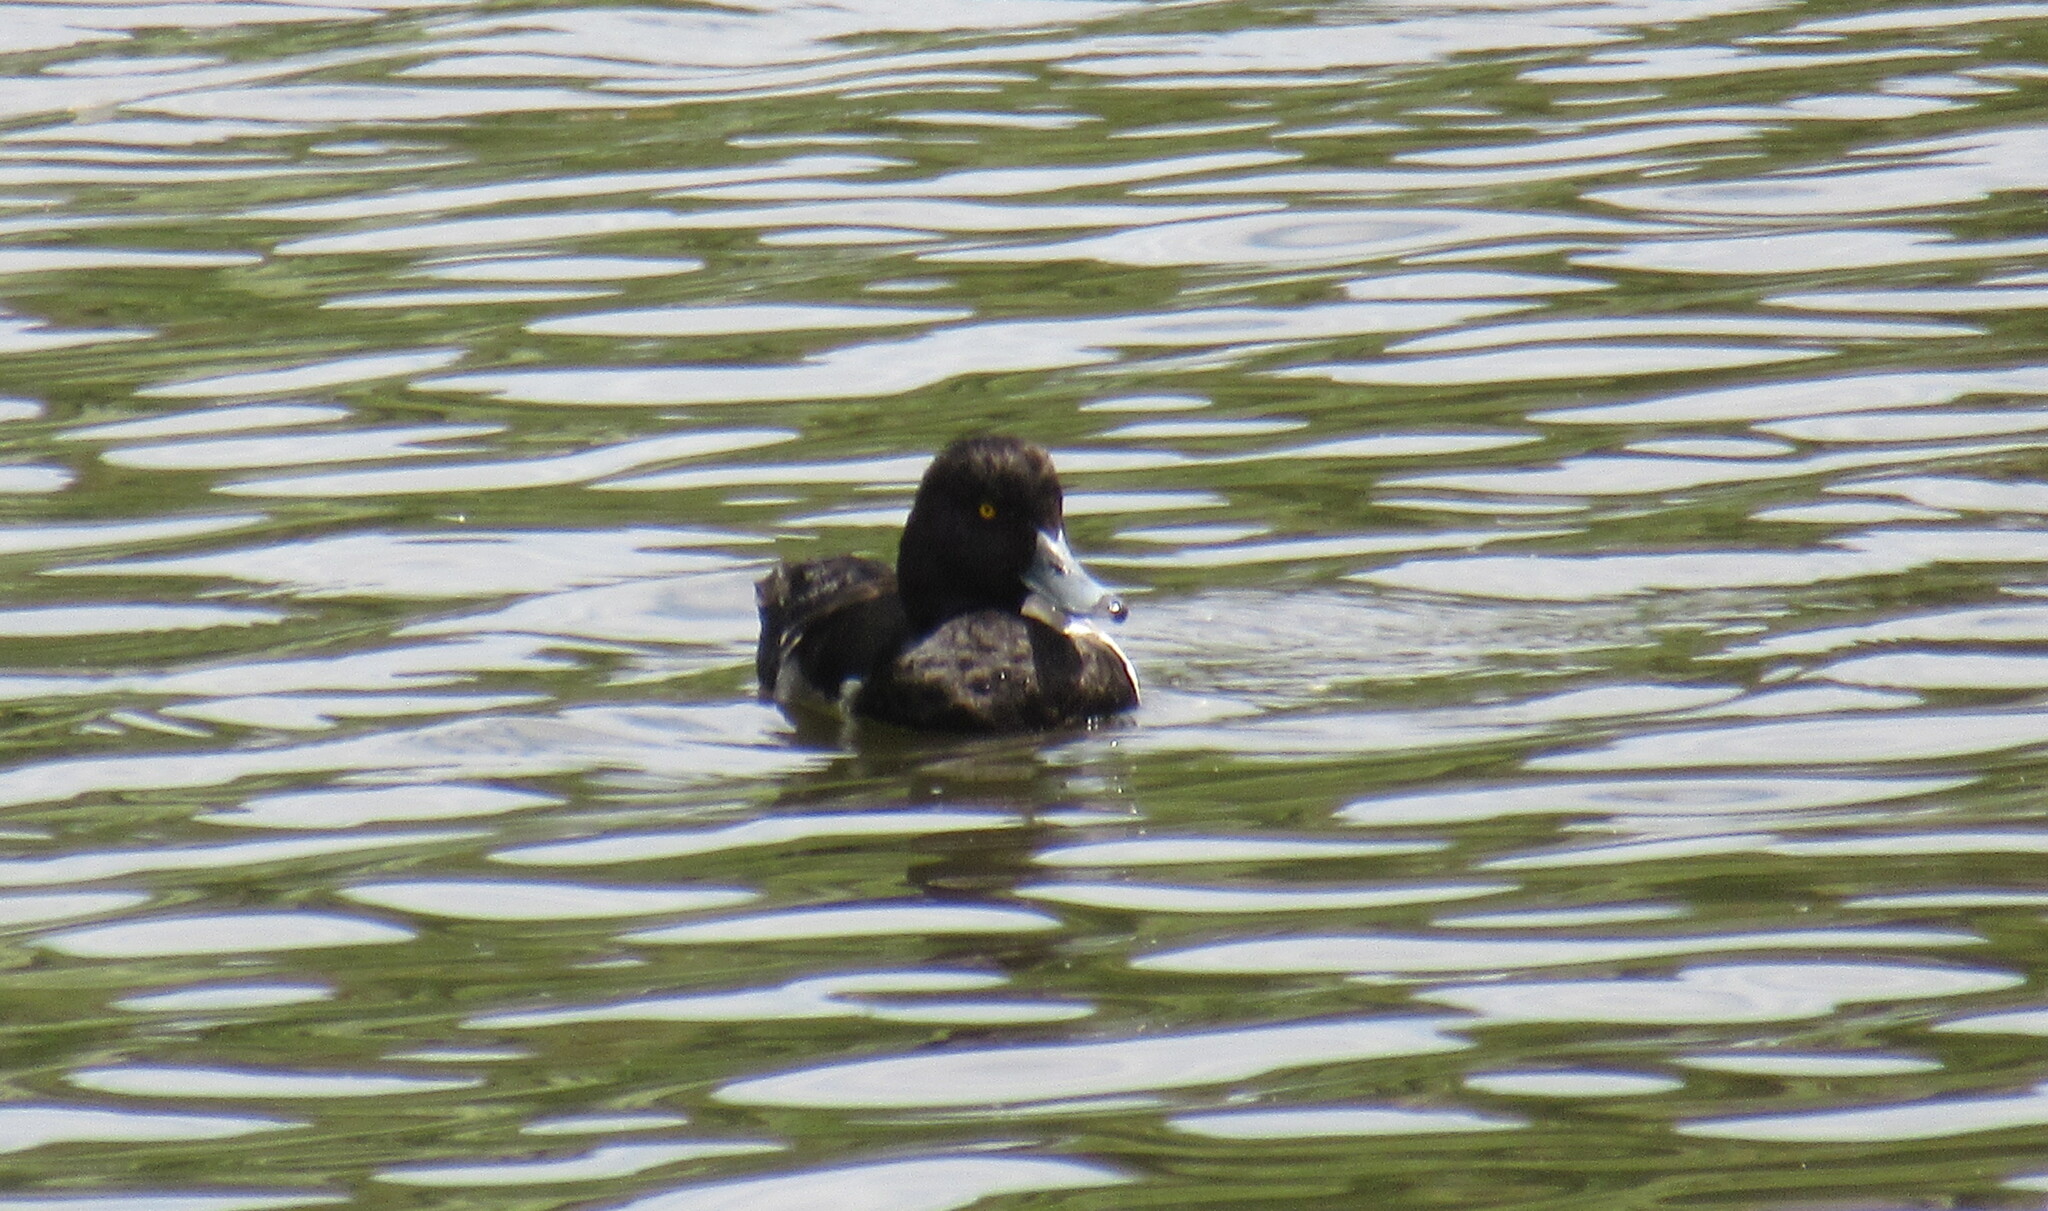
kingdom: Animalia
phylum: Chordata
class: Aves
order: Anseriformes
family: Anatidae
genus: Aythya
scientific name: Aythya fuligula
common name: Tufted duck
